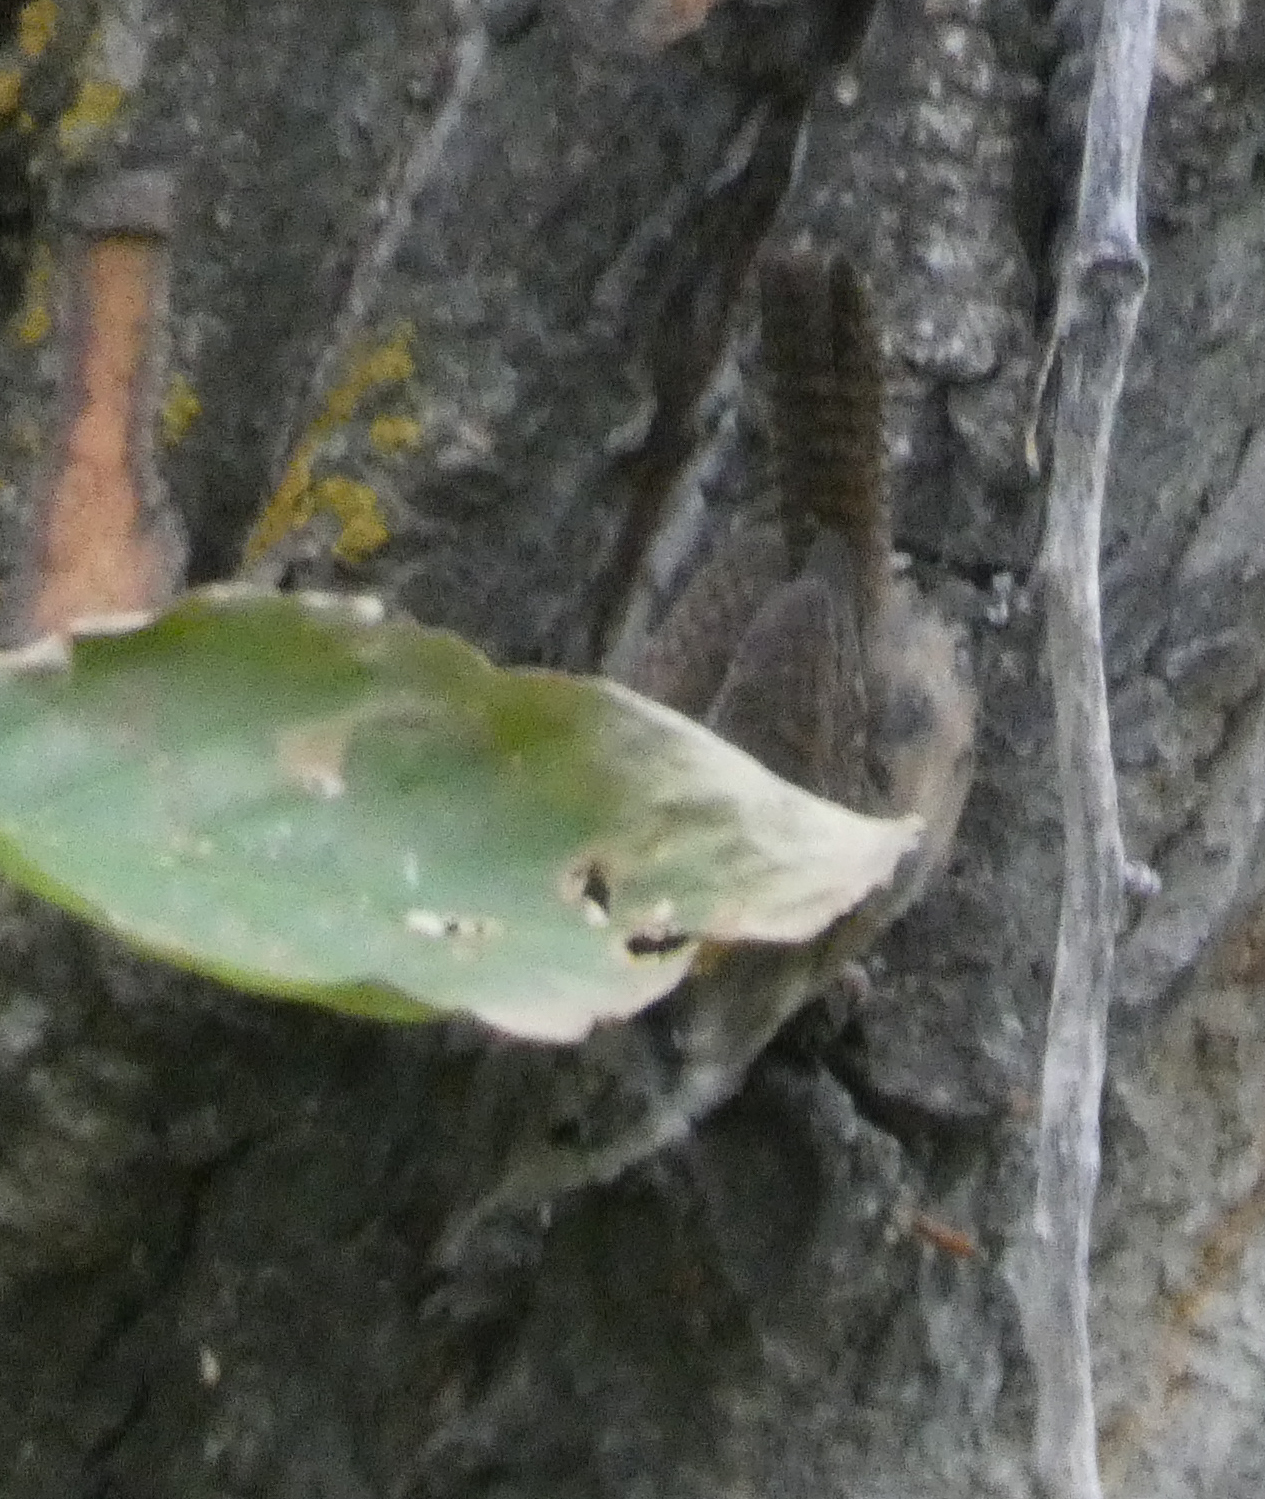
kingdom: Animalia
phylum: Chordata
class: Aves
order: Passeriformes
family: Troglodytidae
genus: Troglodytes
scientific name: Troglodytes aedon
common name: House wren
